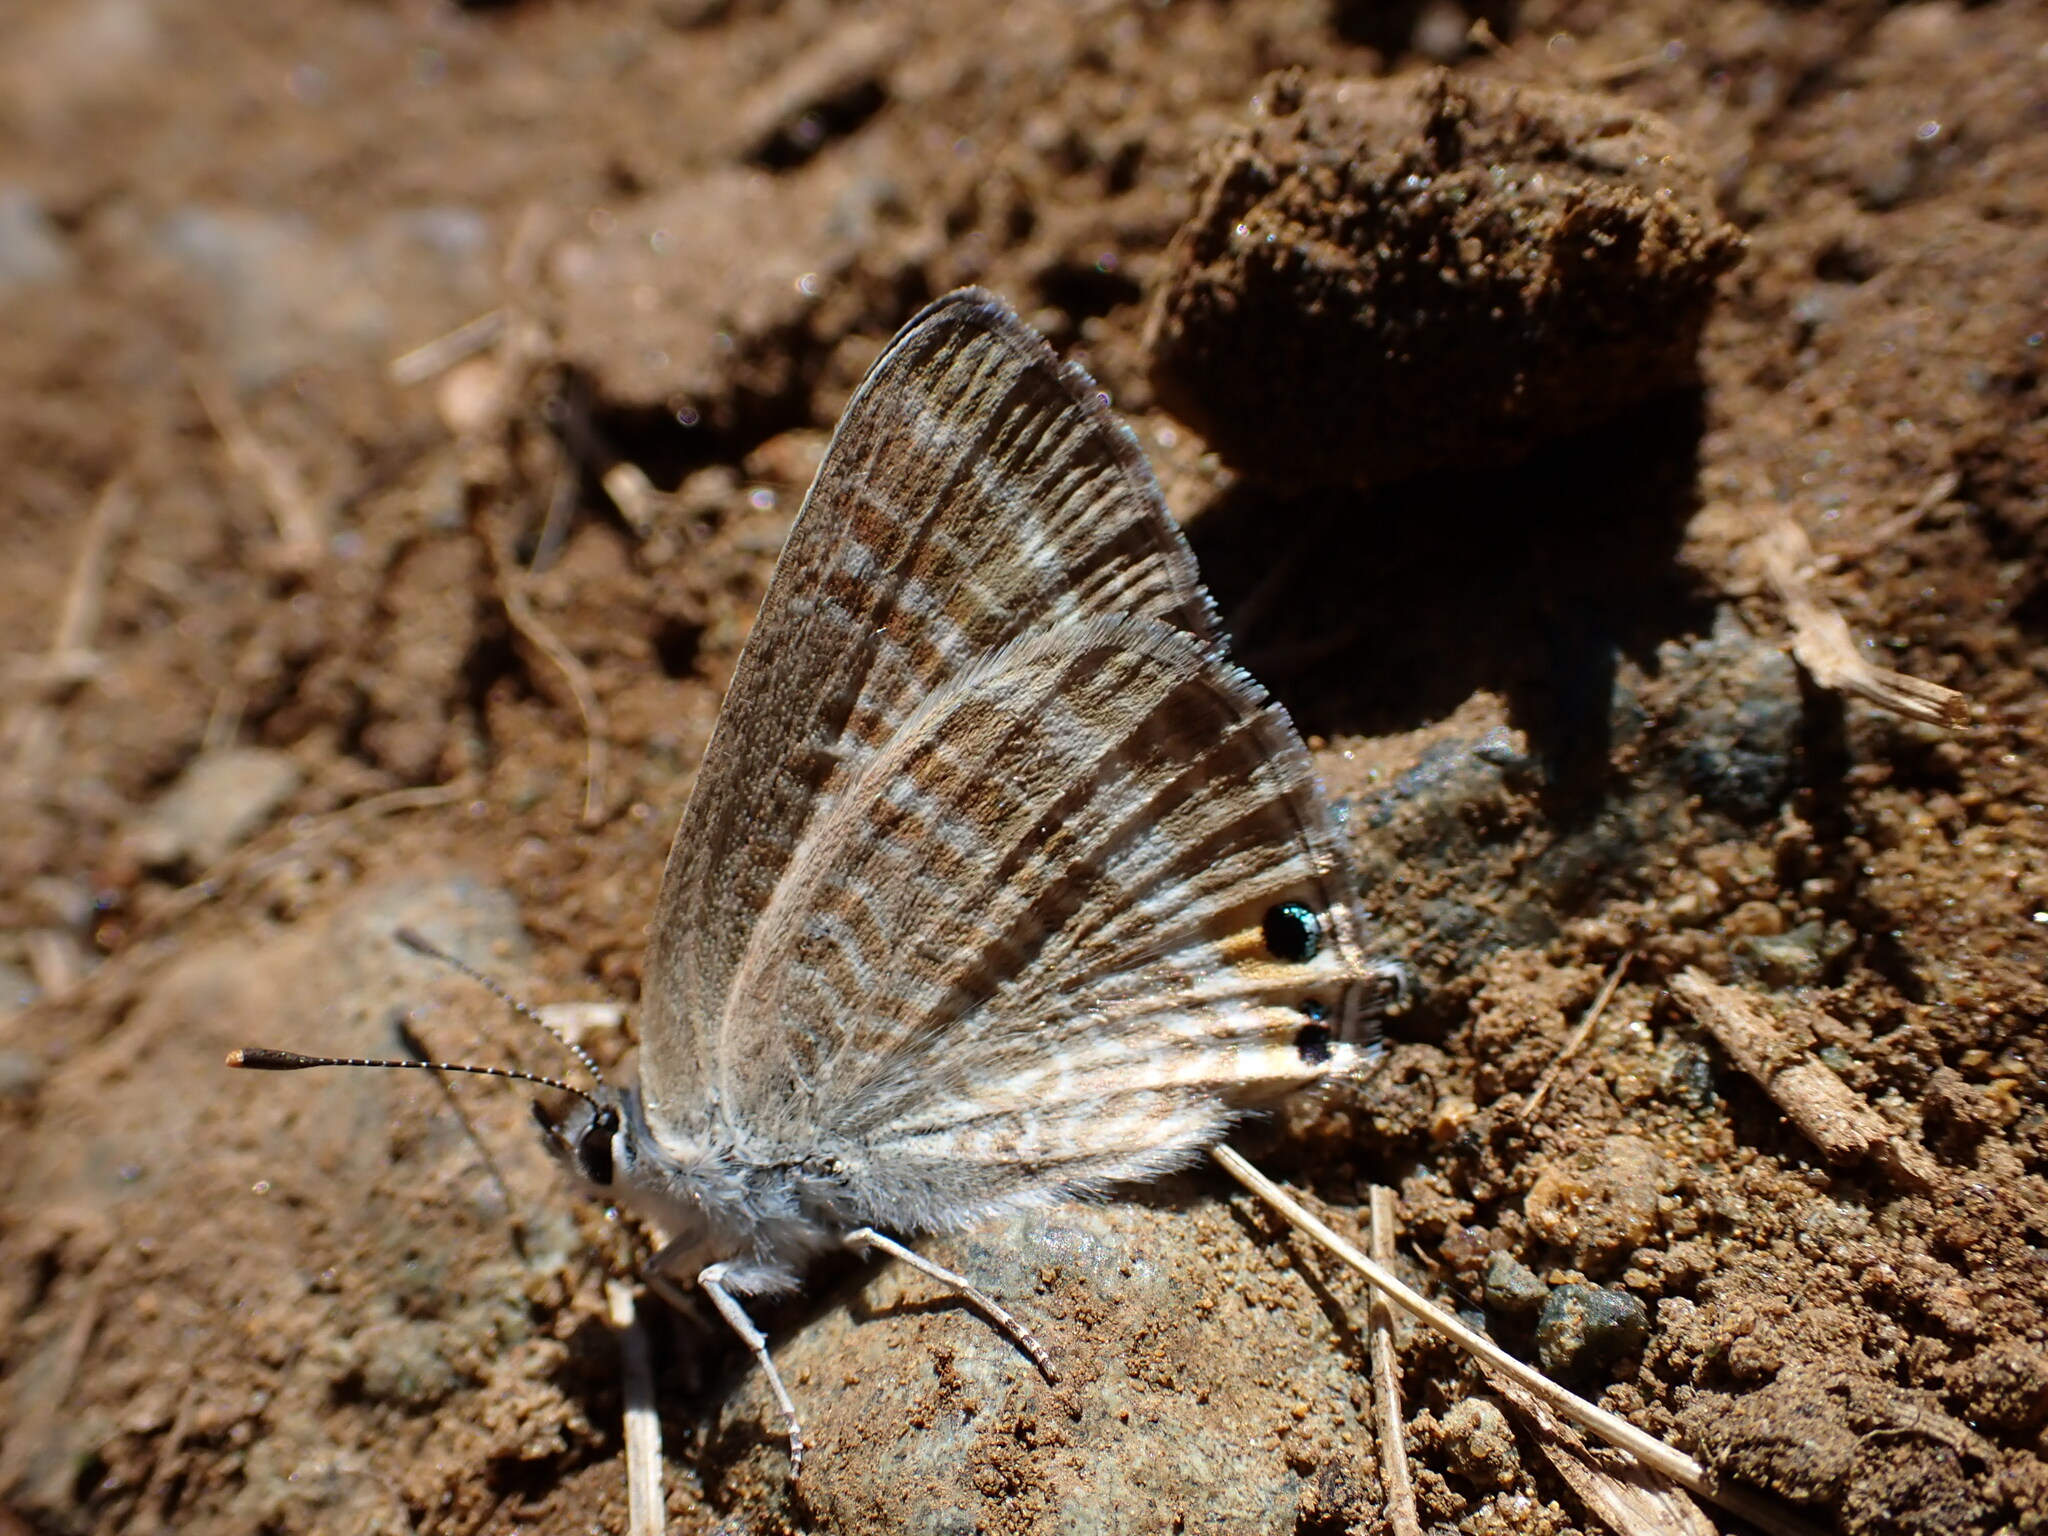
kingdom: Animalia
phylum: Arthropoda
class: Insecta
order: Lepidoptera
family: Lycaenidae
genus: Lampides
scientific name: Lampides boeticus
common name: Long-tailed blue
